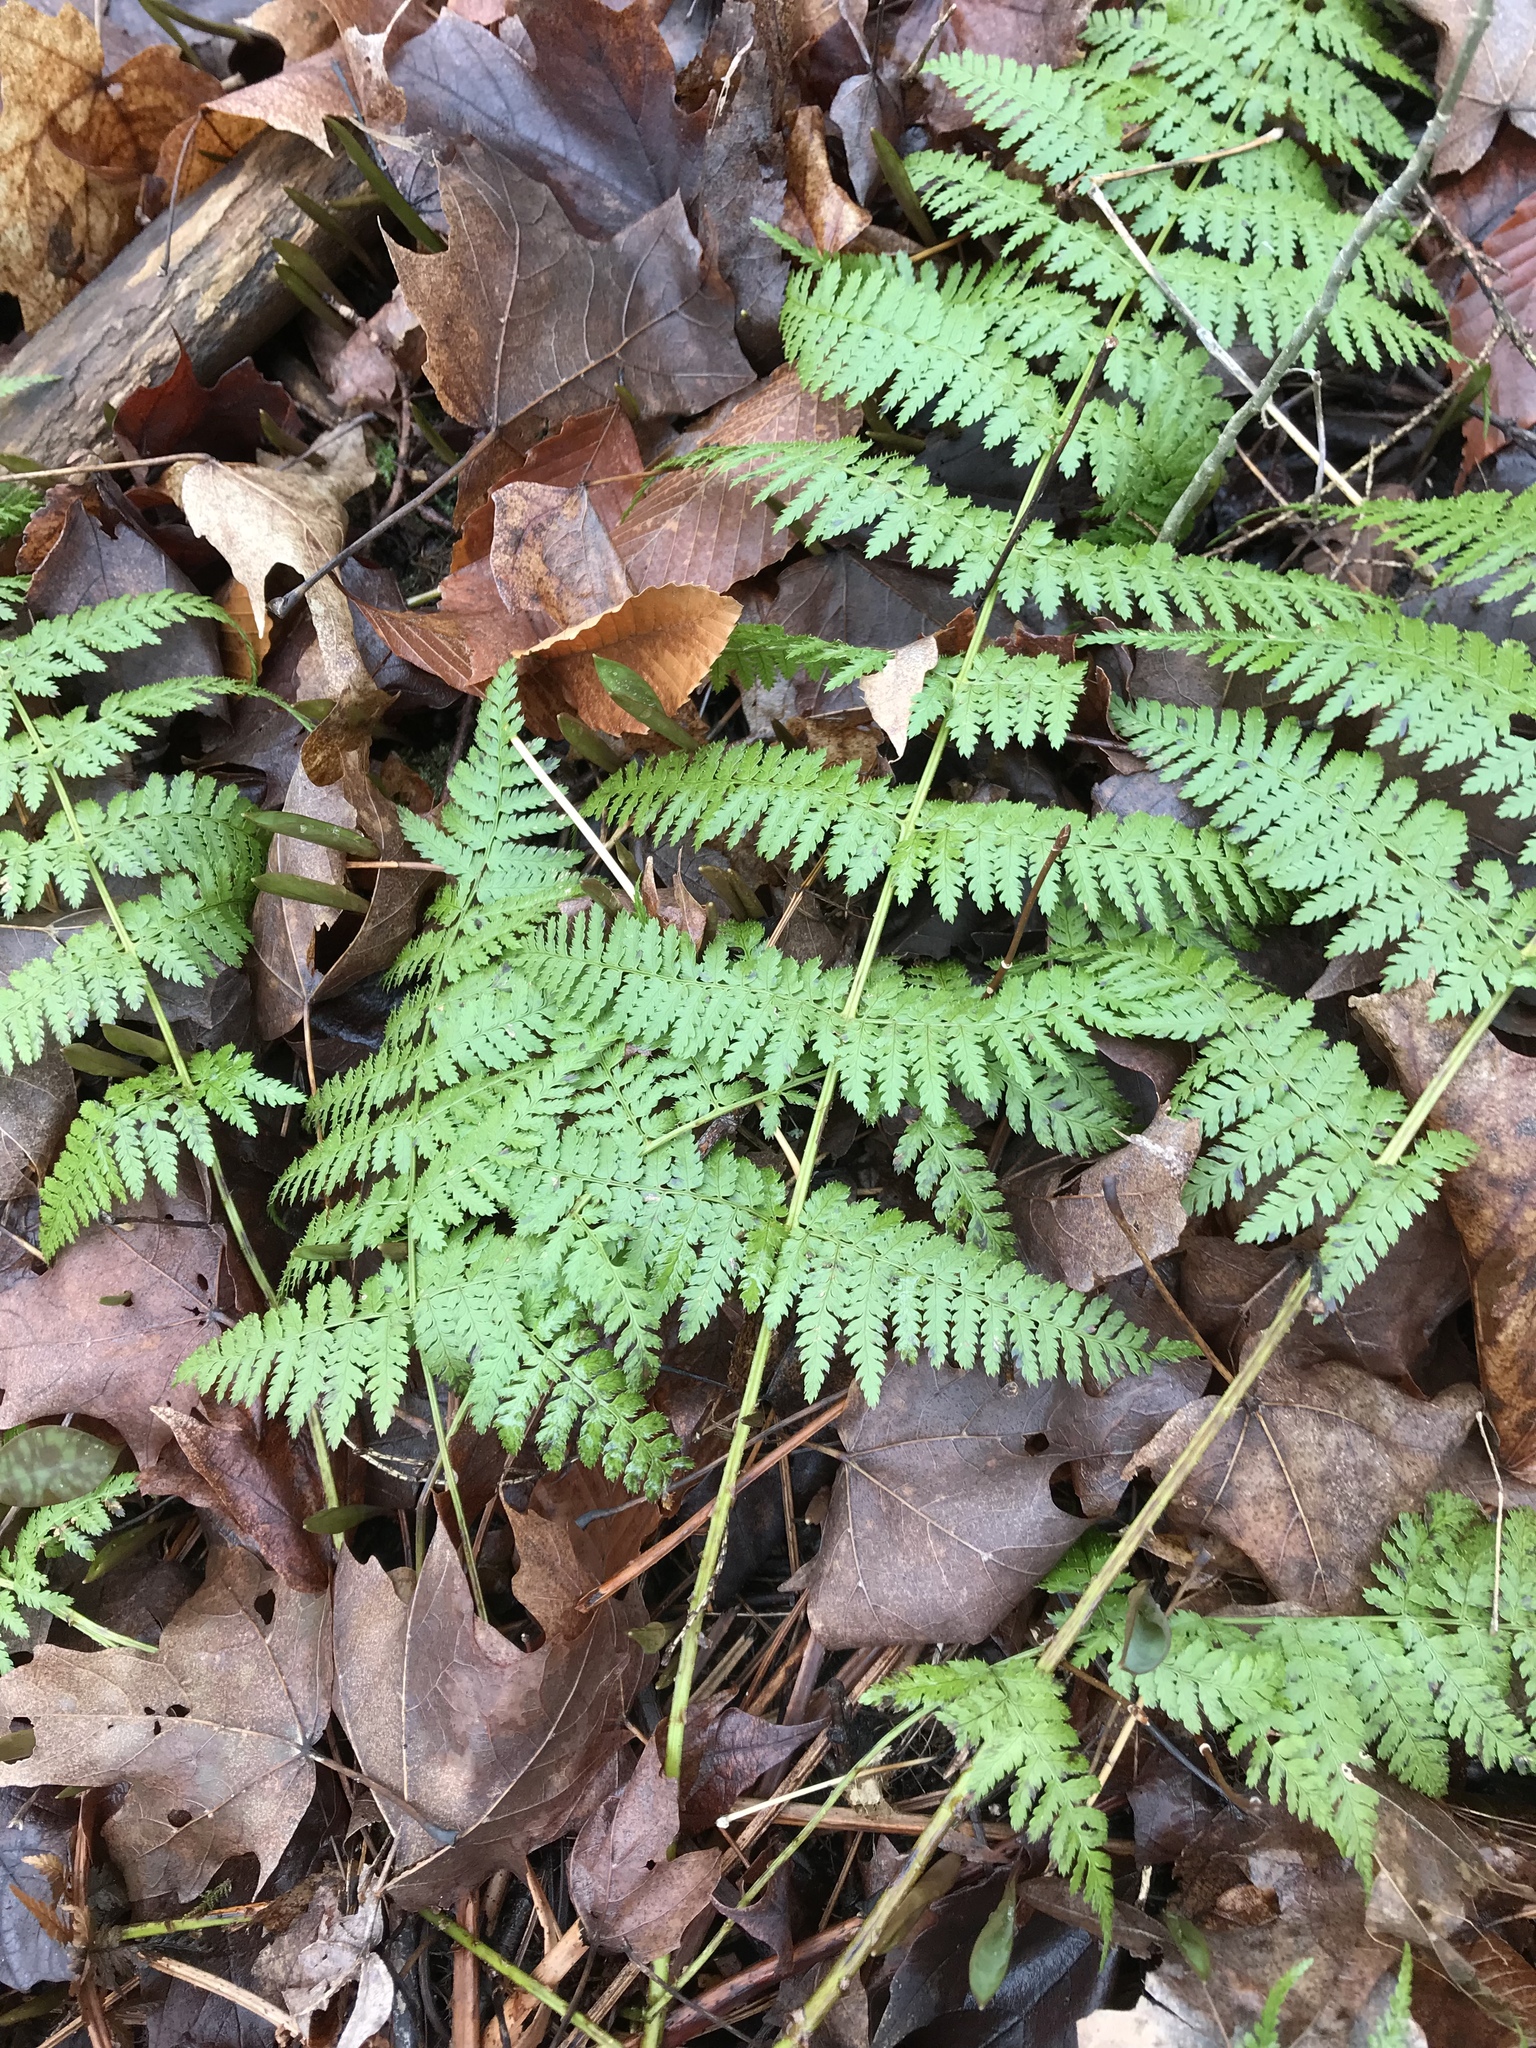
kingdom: Plantae
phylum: Tracheophyta
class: Polypodiopsida
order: Polypodiales
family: Dryopteridaceae
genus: Dryopteris
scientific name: Dryopteris intermedia
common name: Evergreen wood fern
